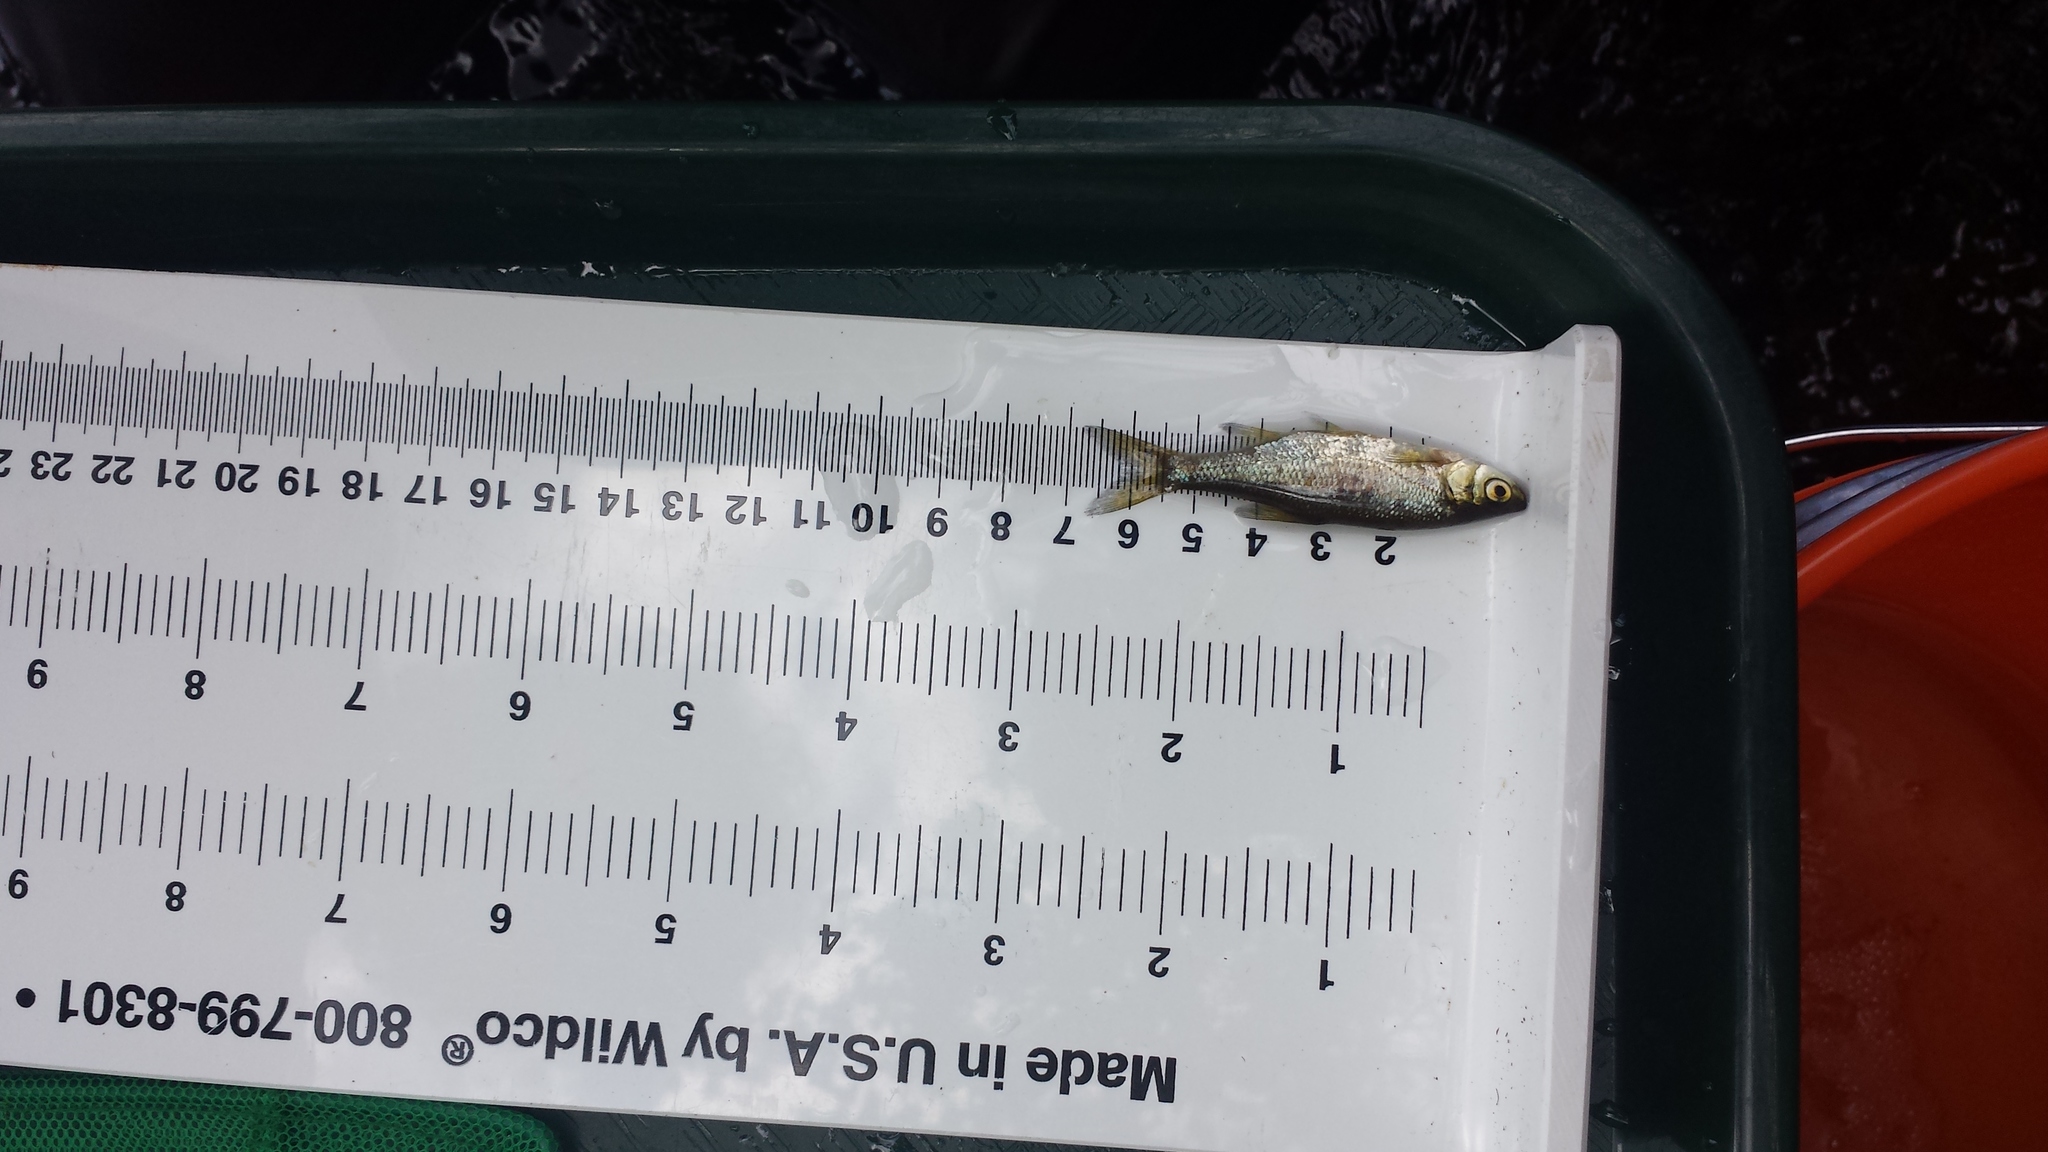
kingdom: Animalia
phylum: Chordata
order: Cypriniformes
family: Cyprinidae
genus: Notemigonus
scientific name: Notemigonus crysoleucas
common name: Golden shiner
